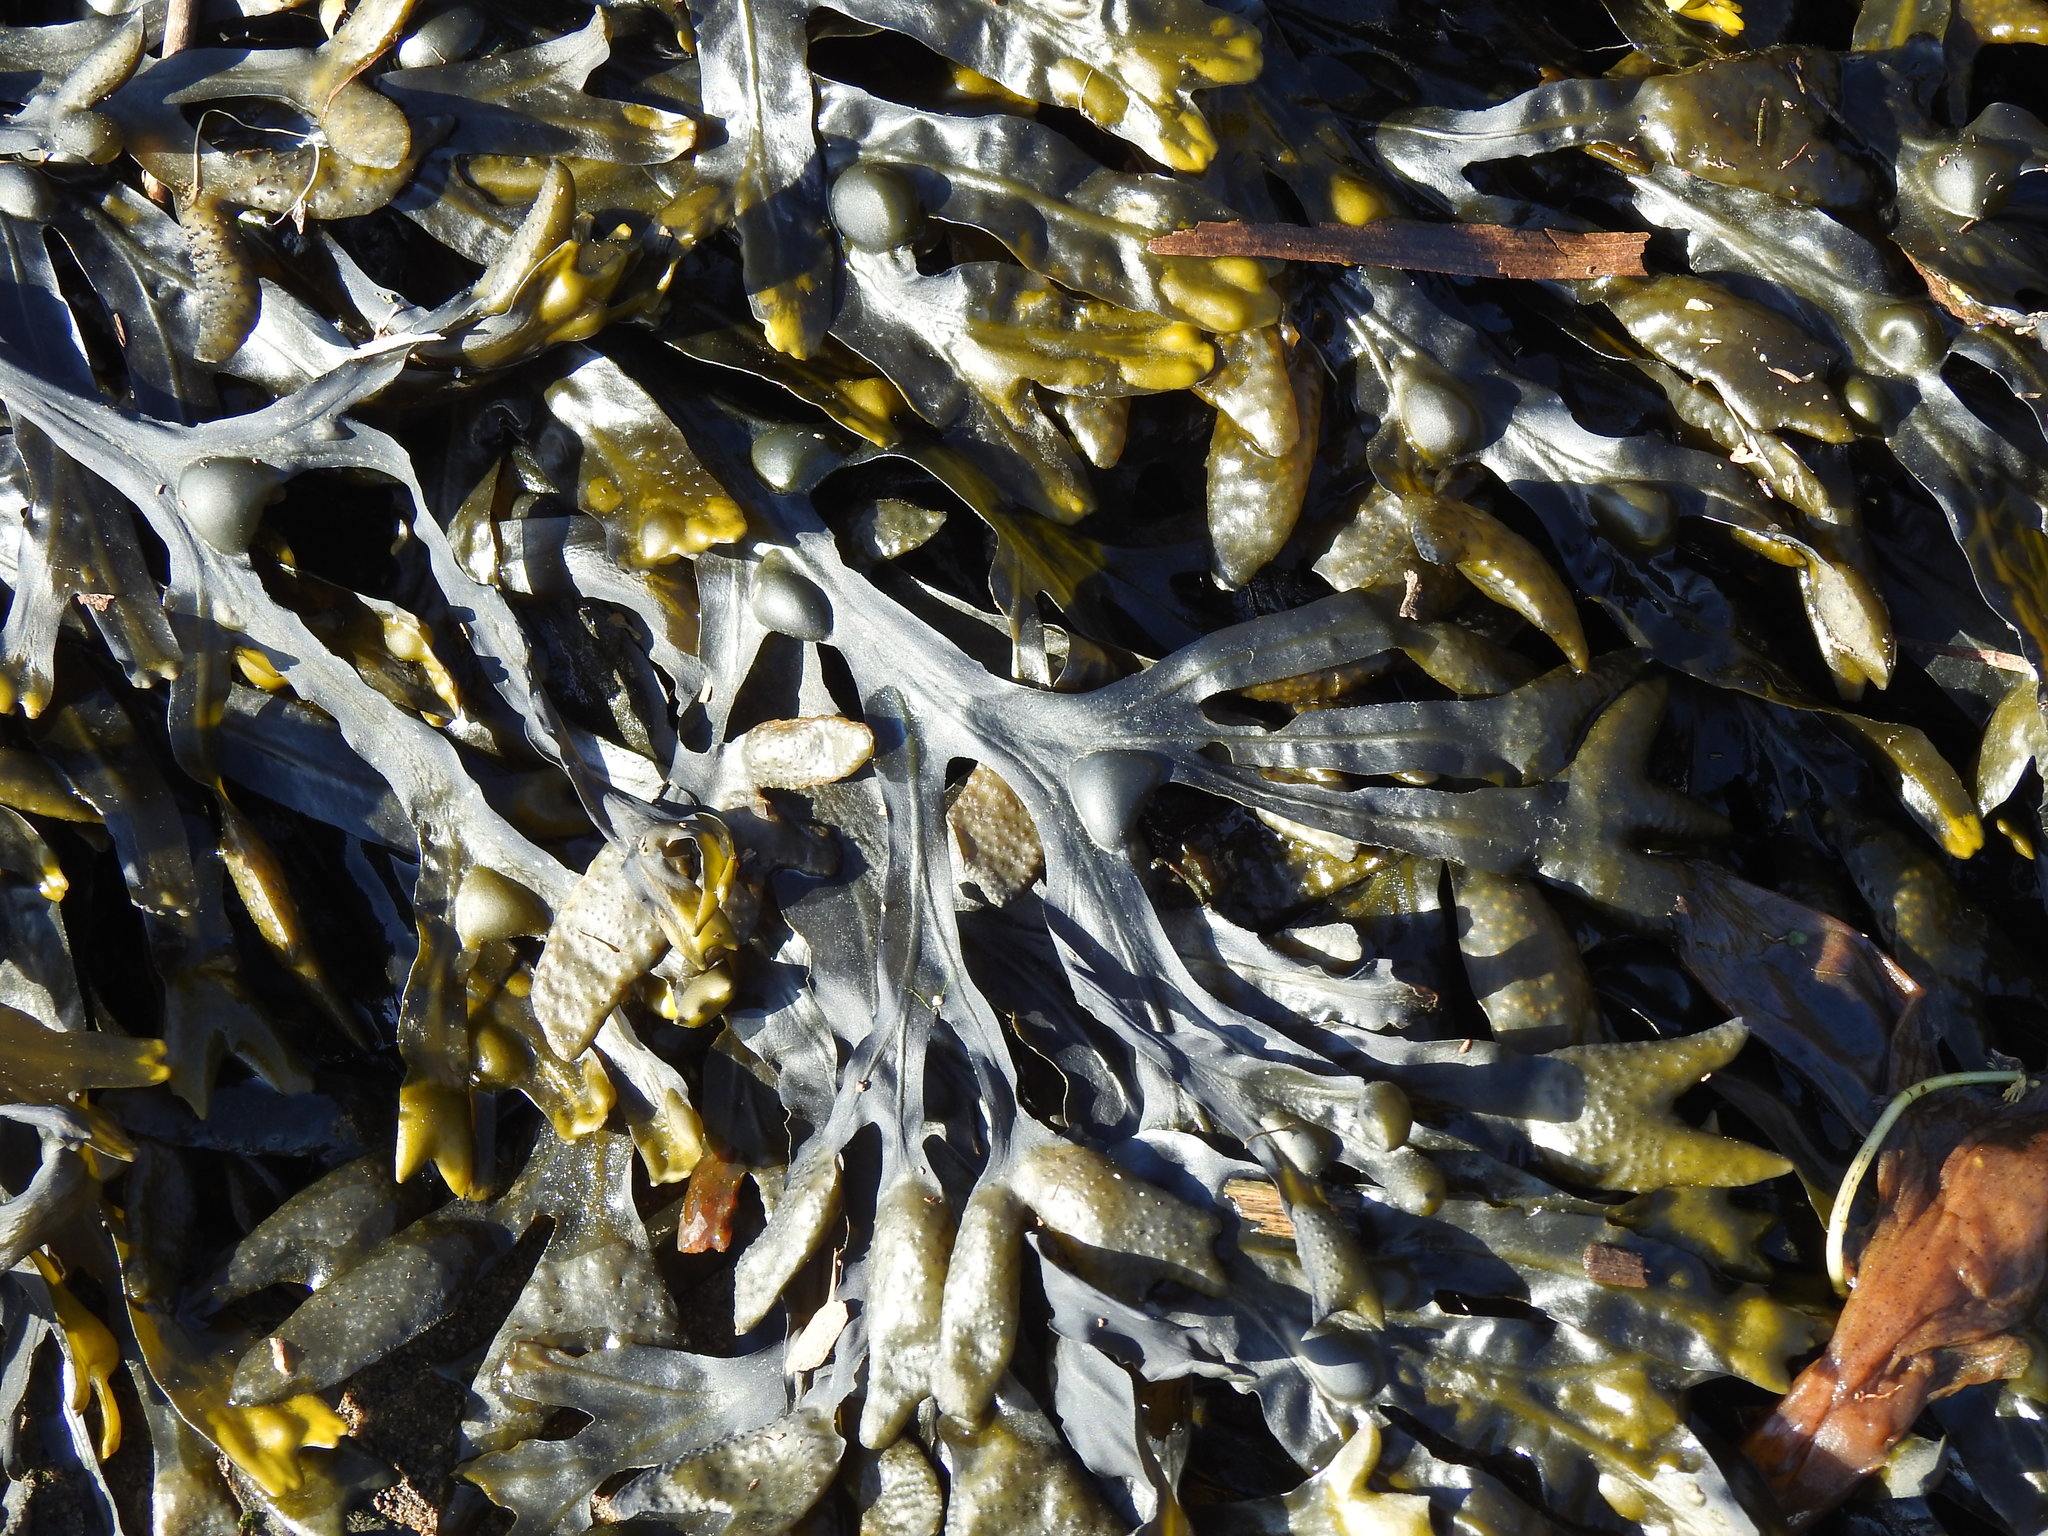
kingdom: Chromista
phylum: Ochrophyta
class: Phaeophyceae
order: Fucales
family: Fucaceae
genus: Fucus
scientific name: Fucus vesiculosus
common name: Bladder wrack
